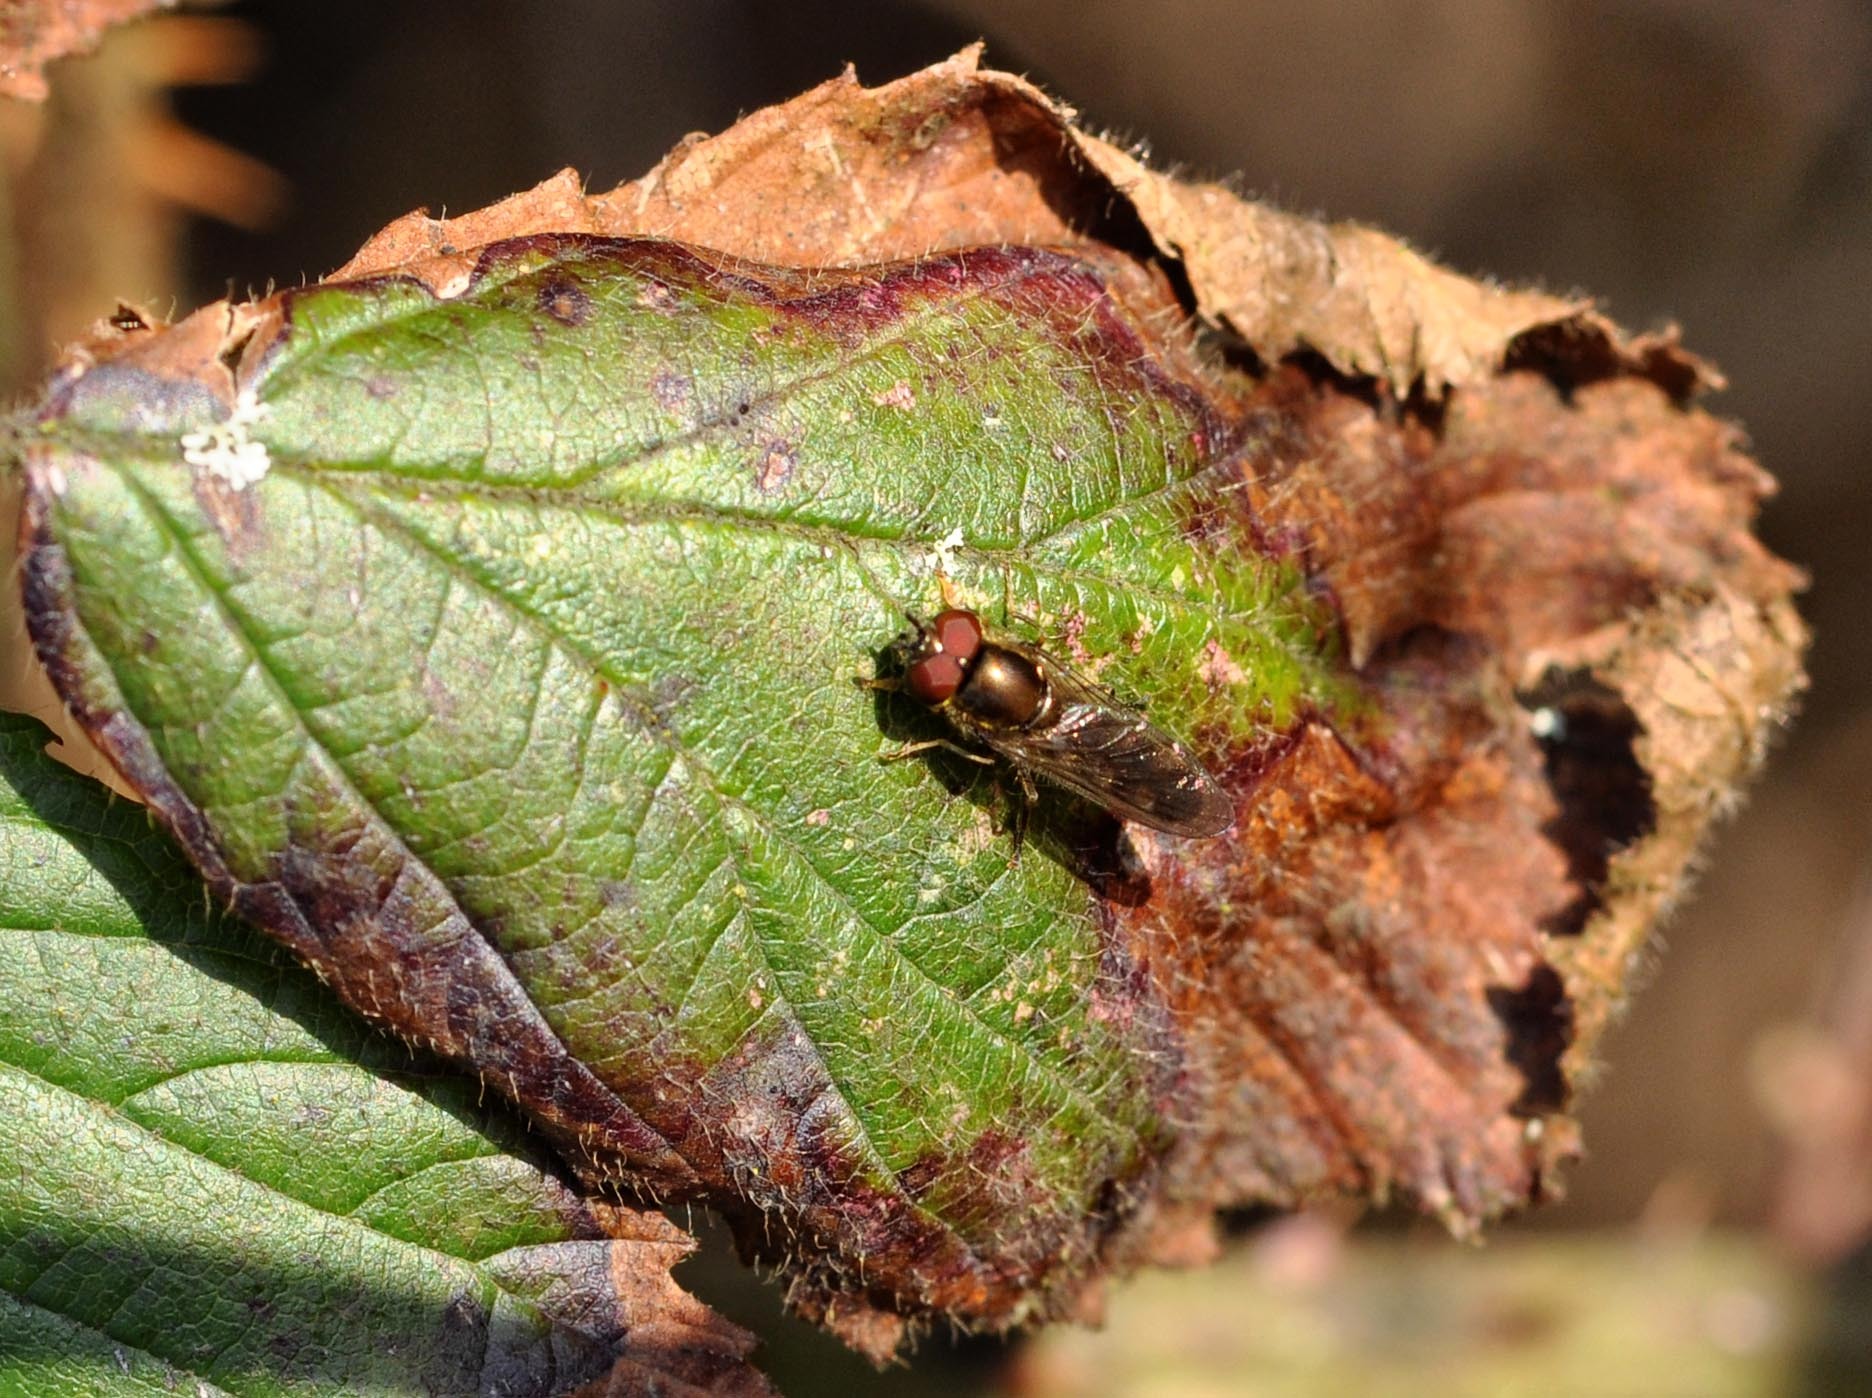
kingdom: Animalia
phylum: Arthropoda
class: Insecta
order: Diptera
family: Syrphidae
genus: Platycheirus
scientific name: Platycheirus
